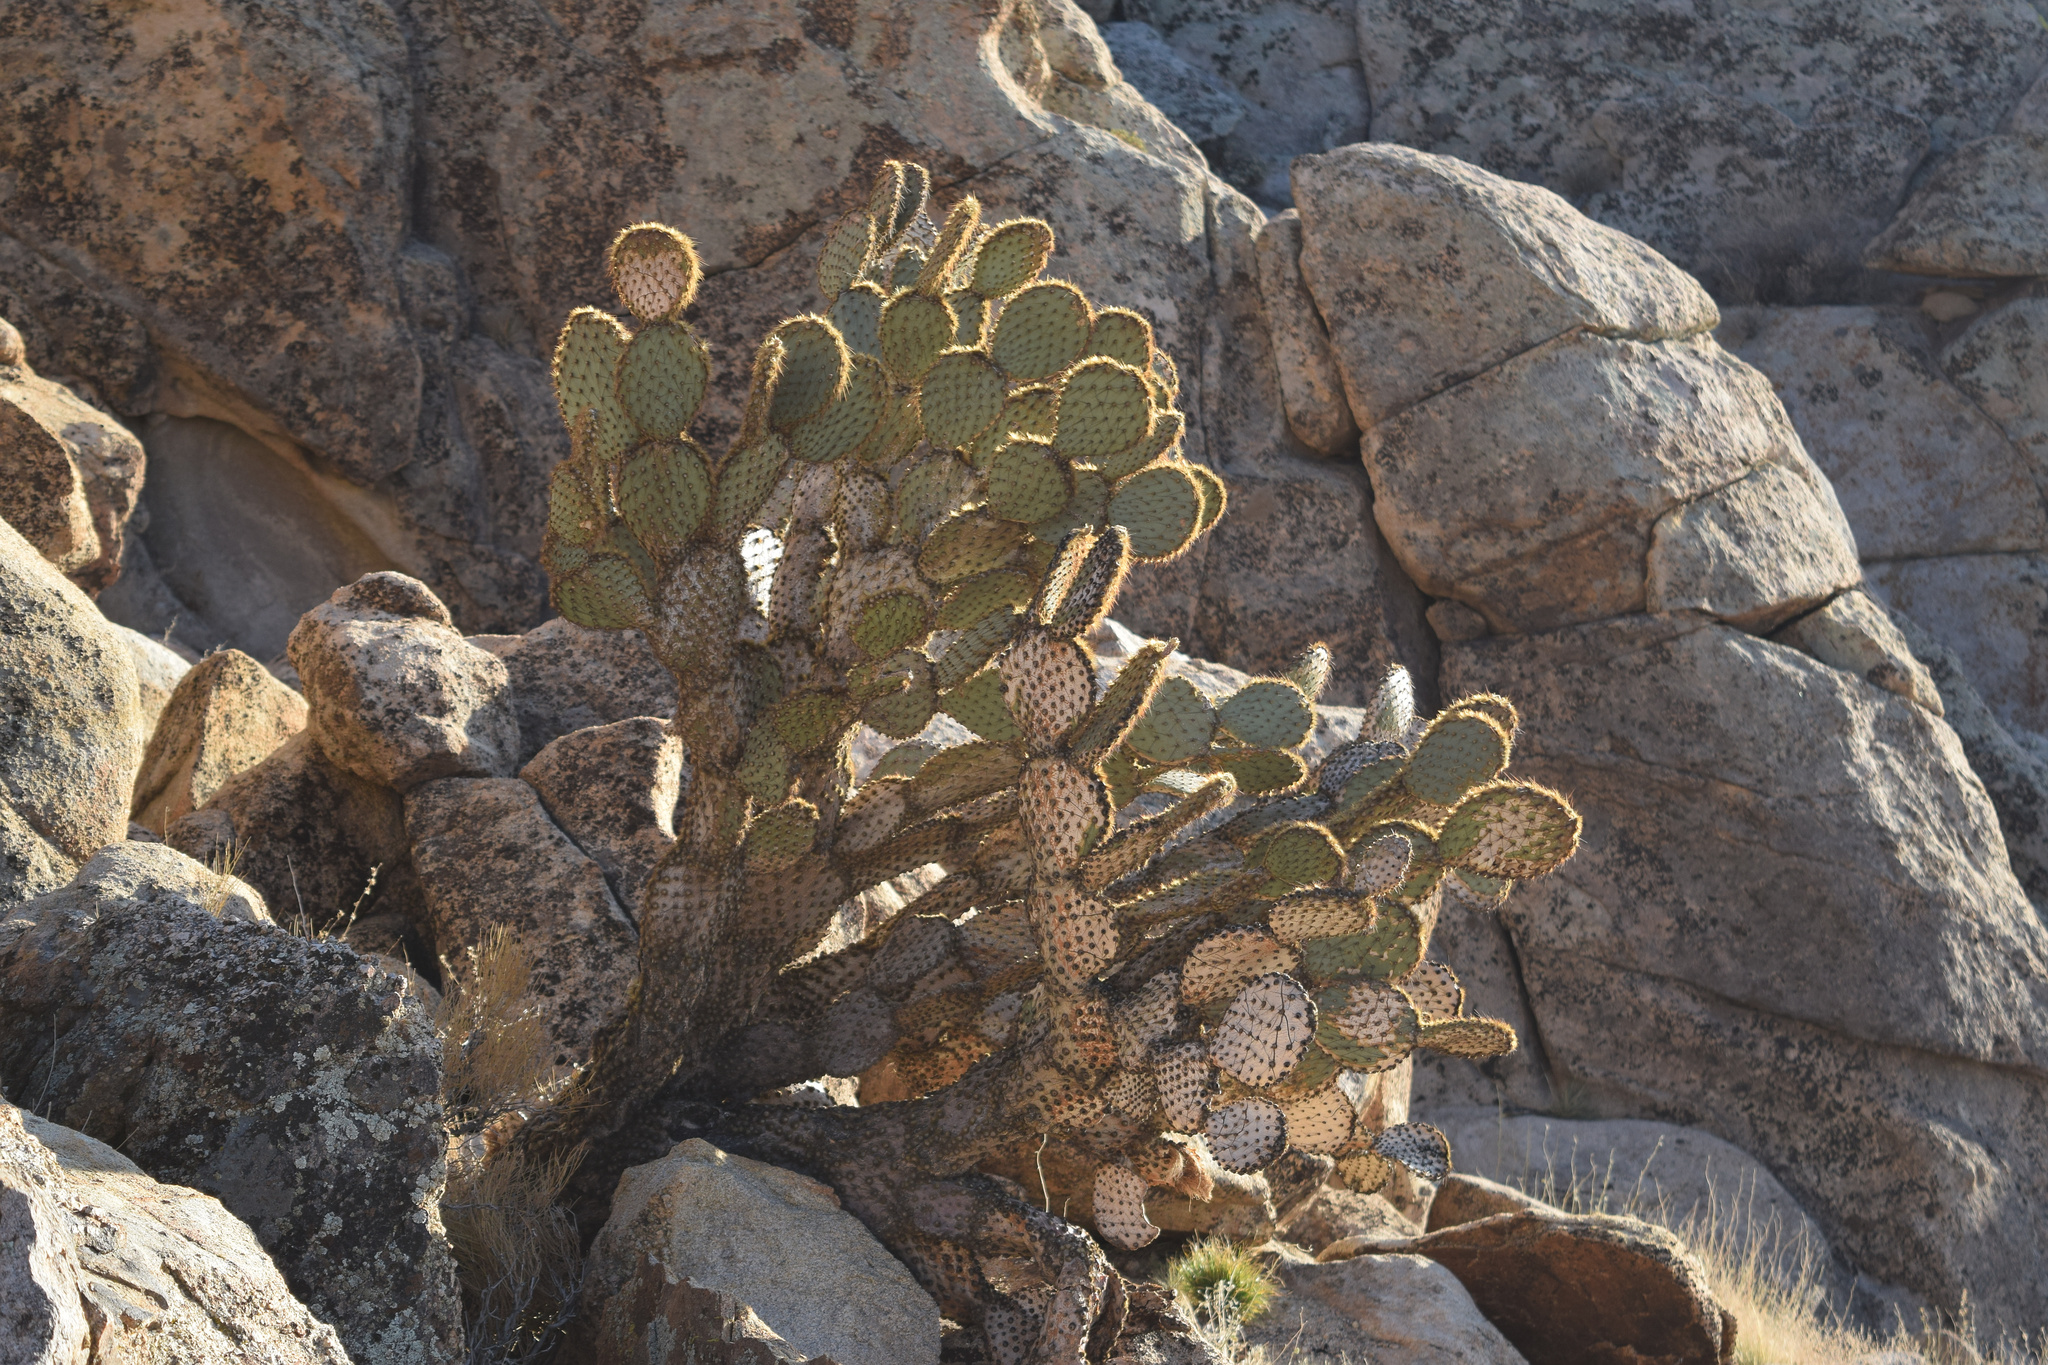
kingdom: Plantae
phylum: Tracheophyta
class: Magnoliopsida
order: Caryophyllales
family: Cactaceae
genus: Opuntia
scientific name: Opuntia chlorotica
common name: Dollar-joint prickly-pear
